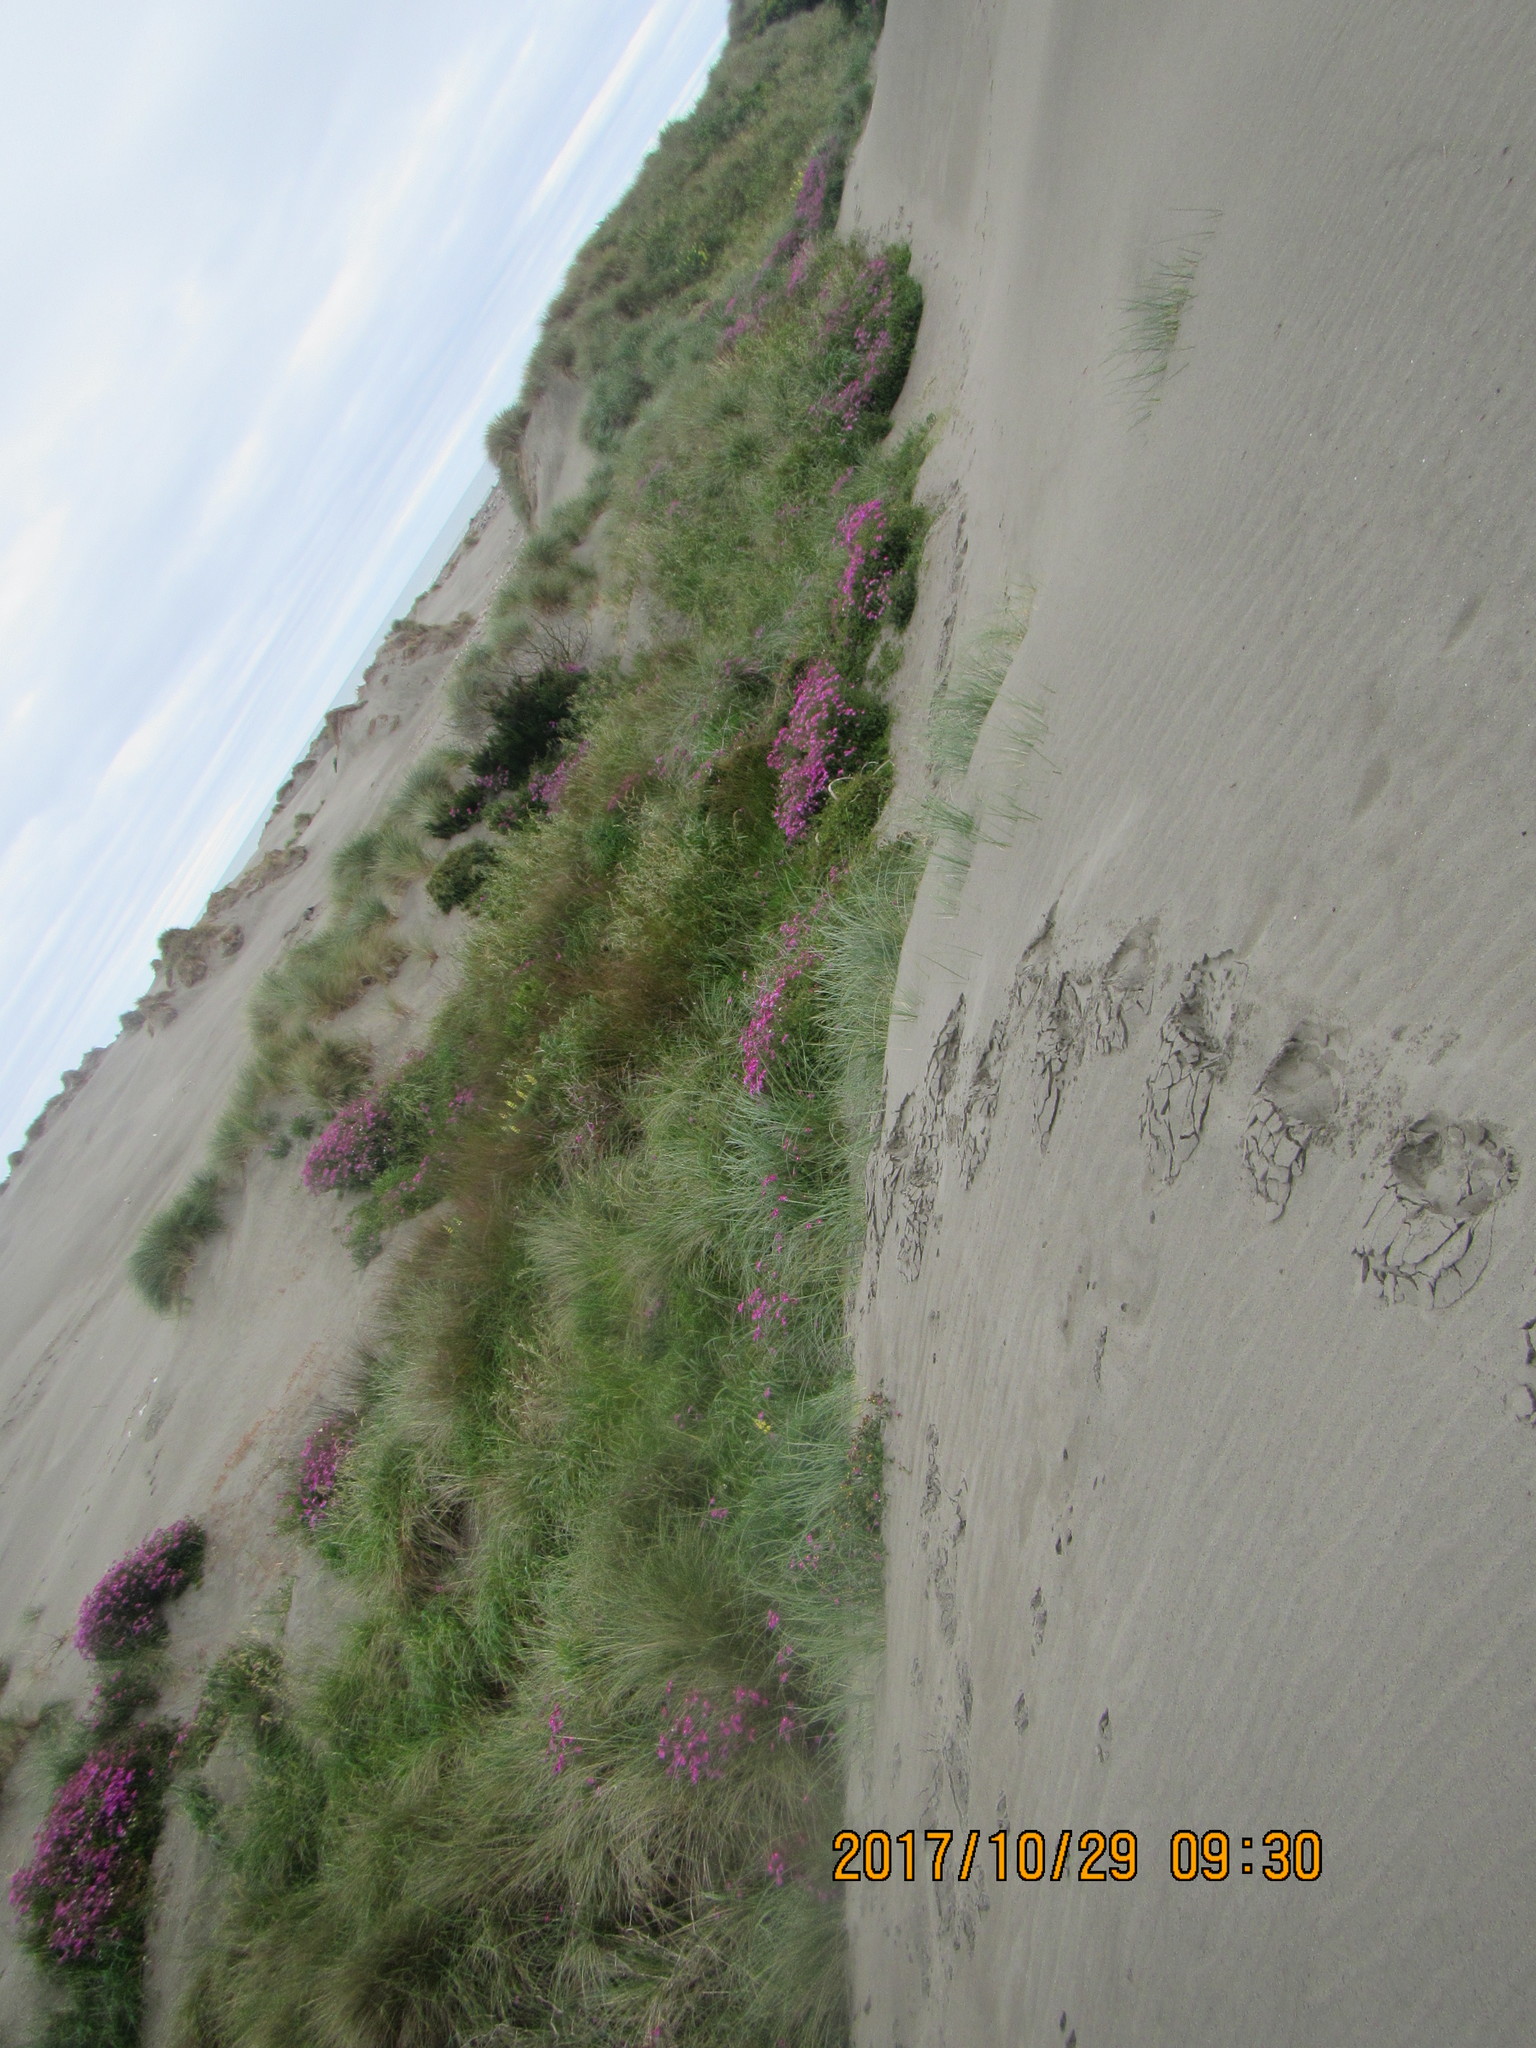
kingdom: Plantae
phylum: Tracheophyta
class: Liliopsida
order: Poales
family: Cyperaceae
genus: Ficinia
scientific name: Ficinia nodosa
